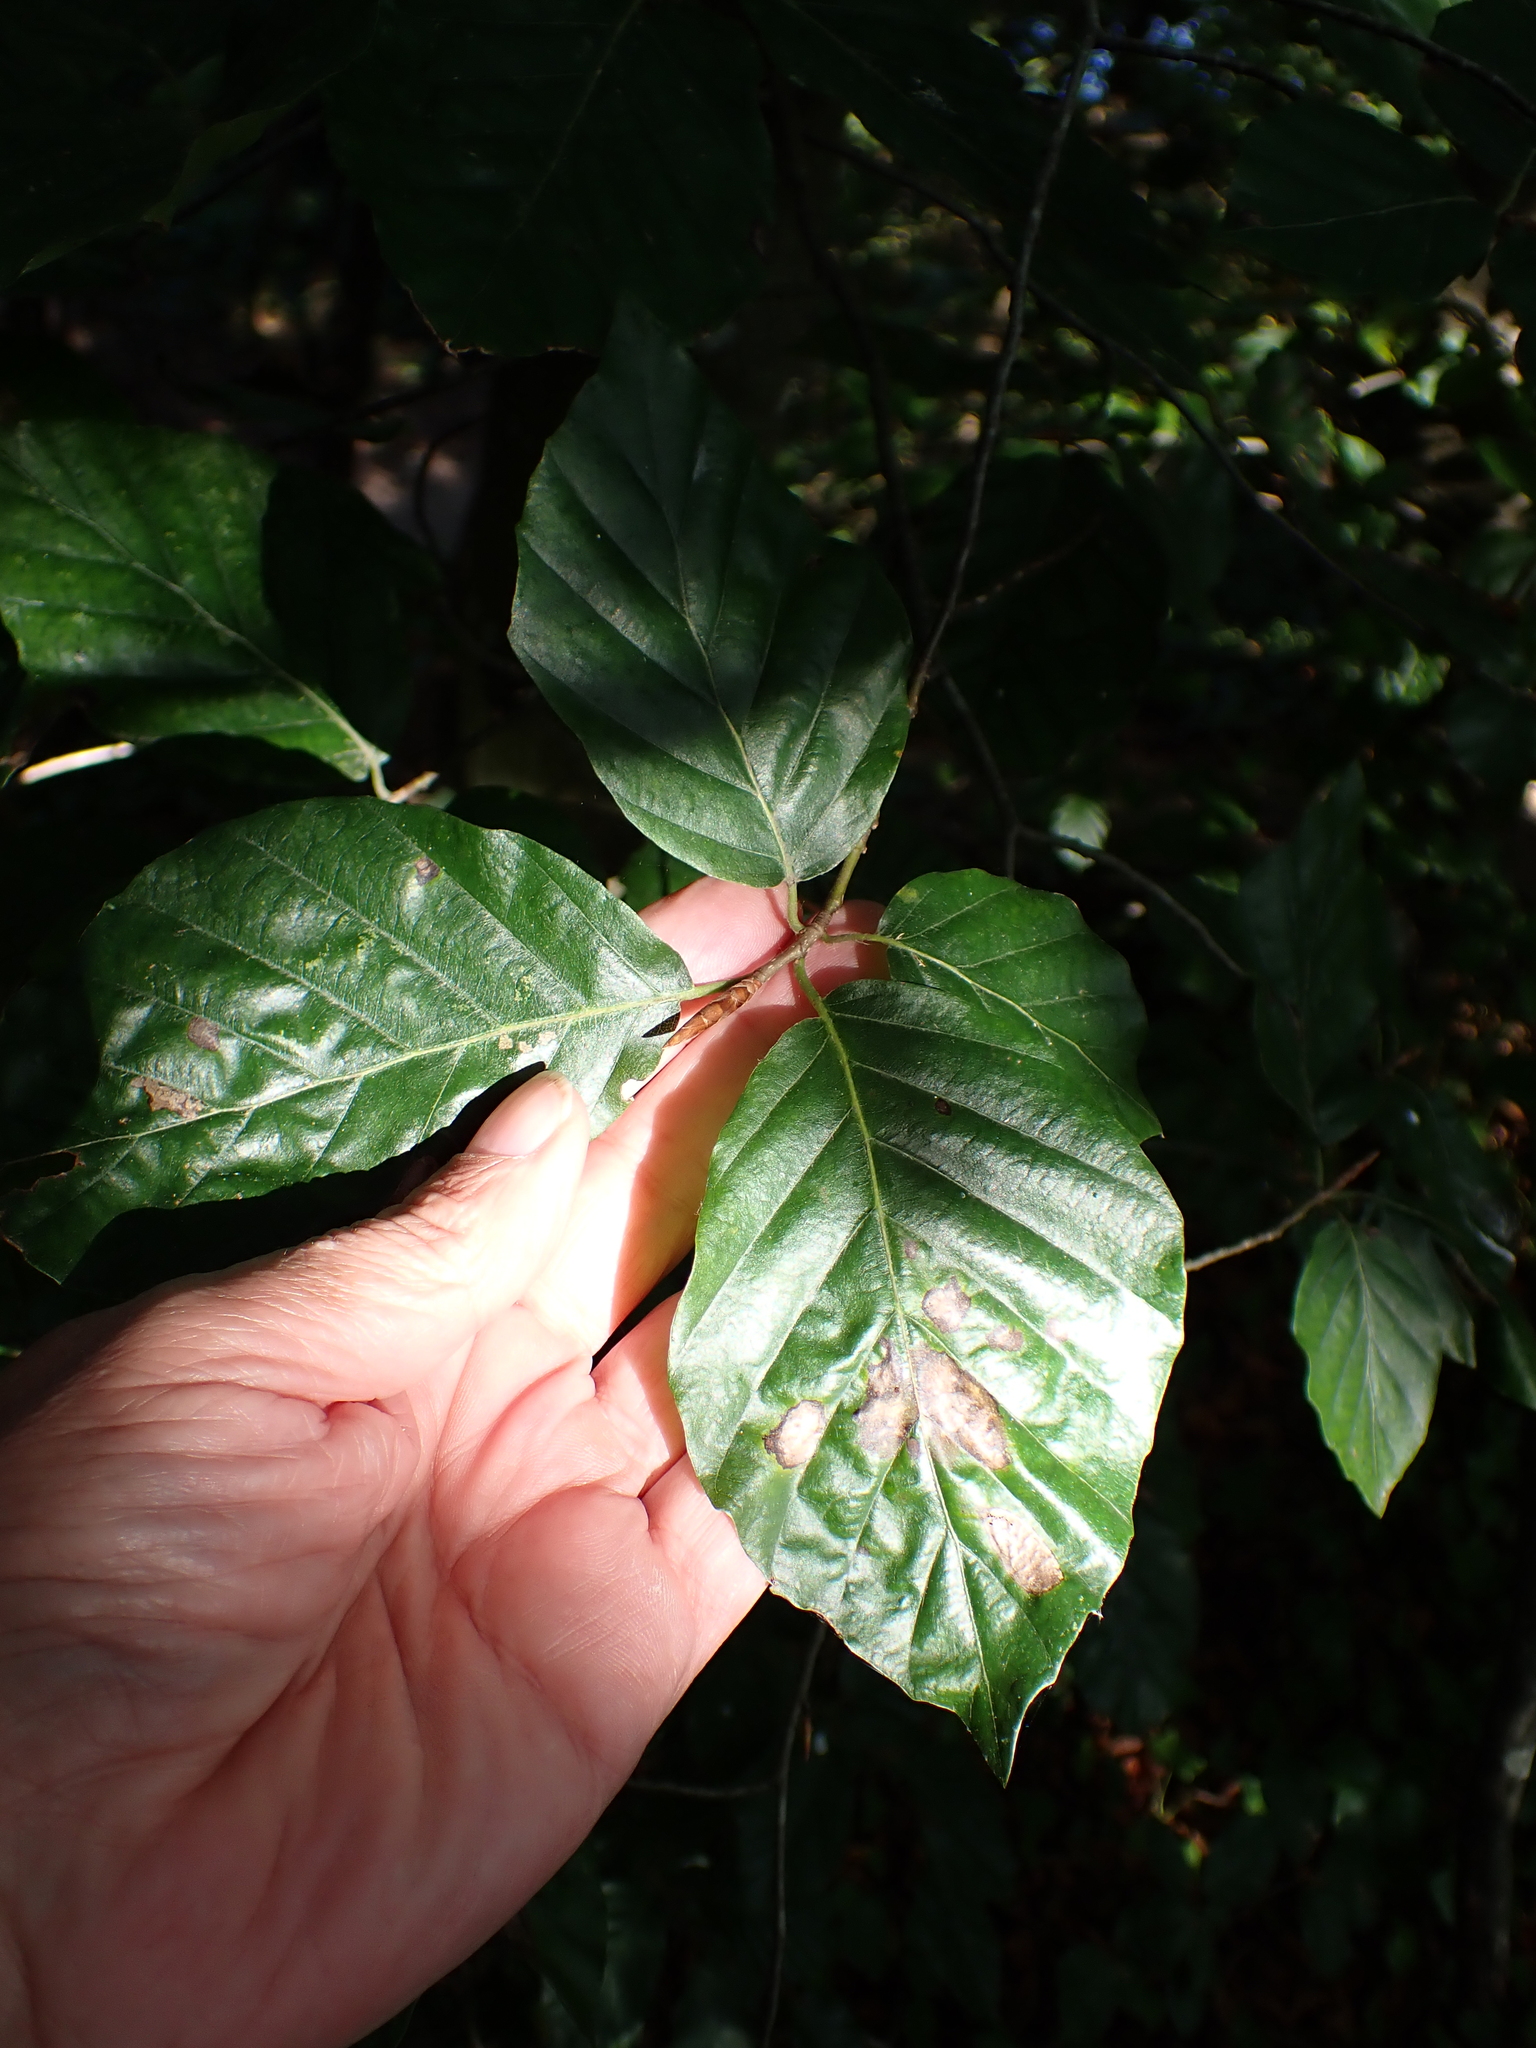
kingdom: Plantae
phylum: Tracheophyta
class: Magnoliopsida
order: Fagales
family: Fagaceae
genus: Fagus
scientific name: Fagus sylvatica
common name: Beech
